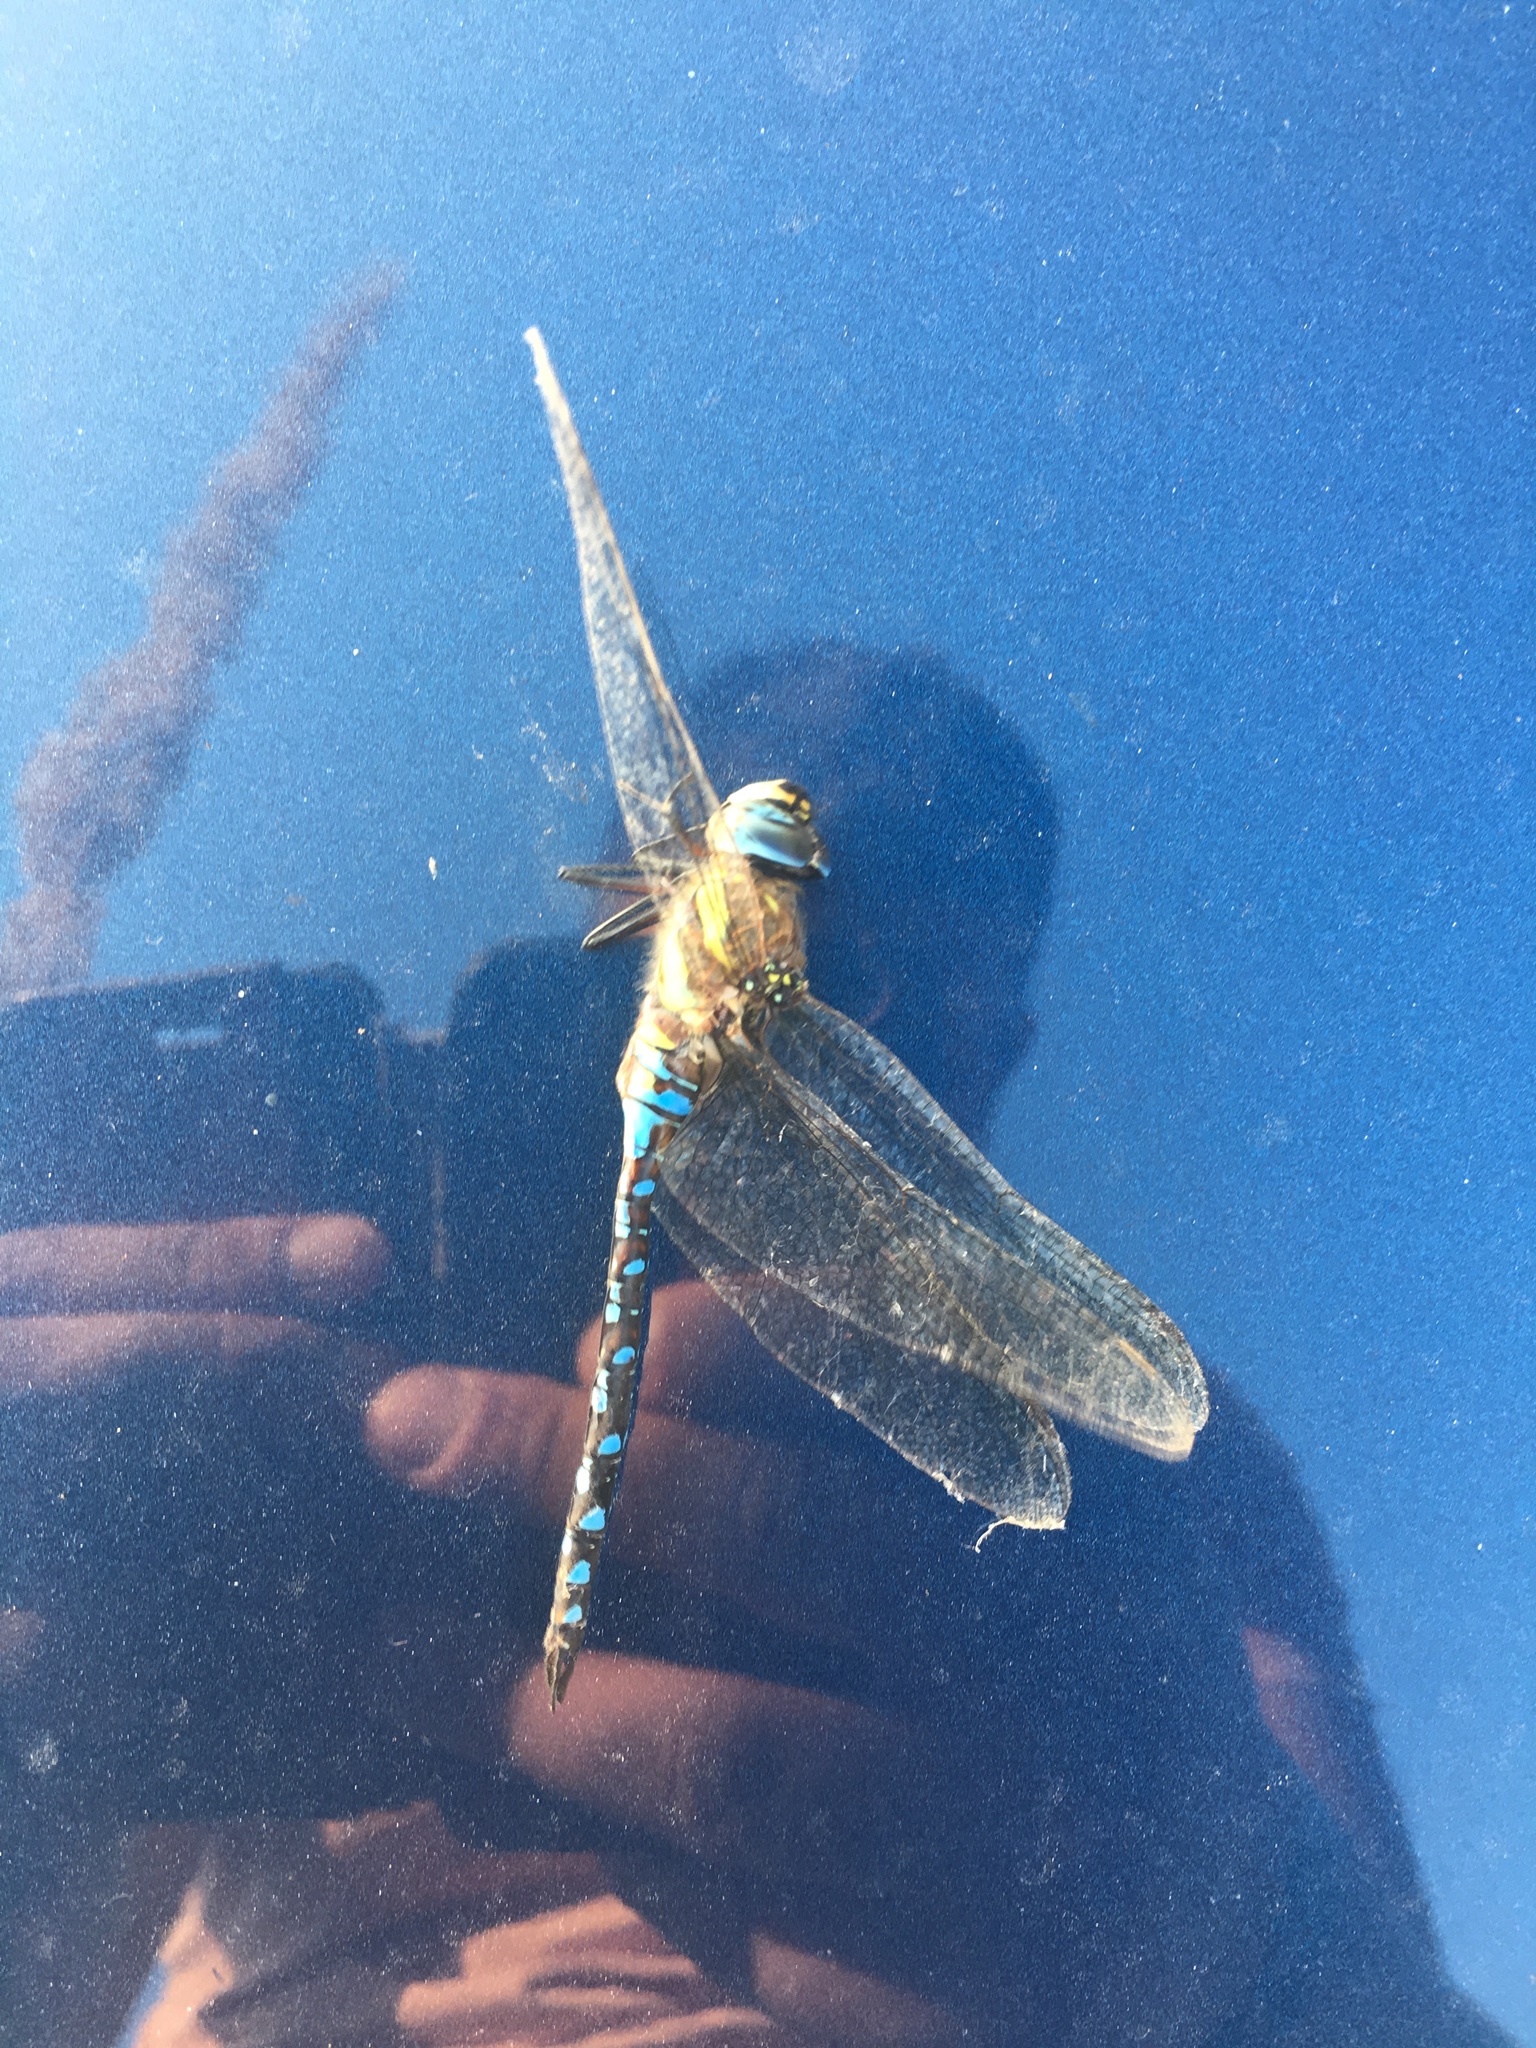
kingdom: Animalia
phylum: Arthropoda
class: Insecta
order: Odonata
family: Aeshnidae
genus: Aeshna
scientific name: Aeshna mixta
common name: Migrant hawker
